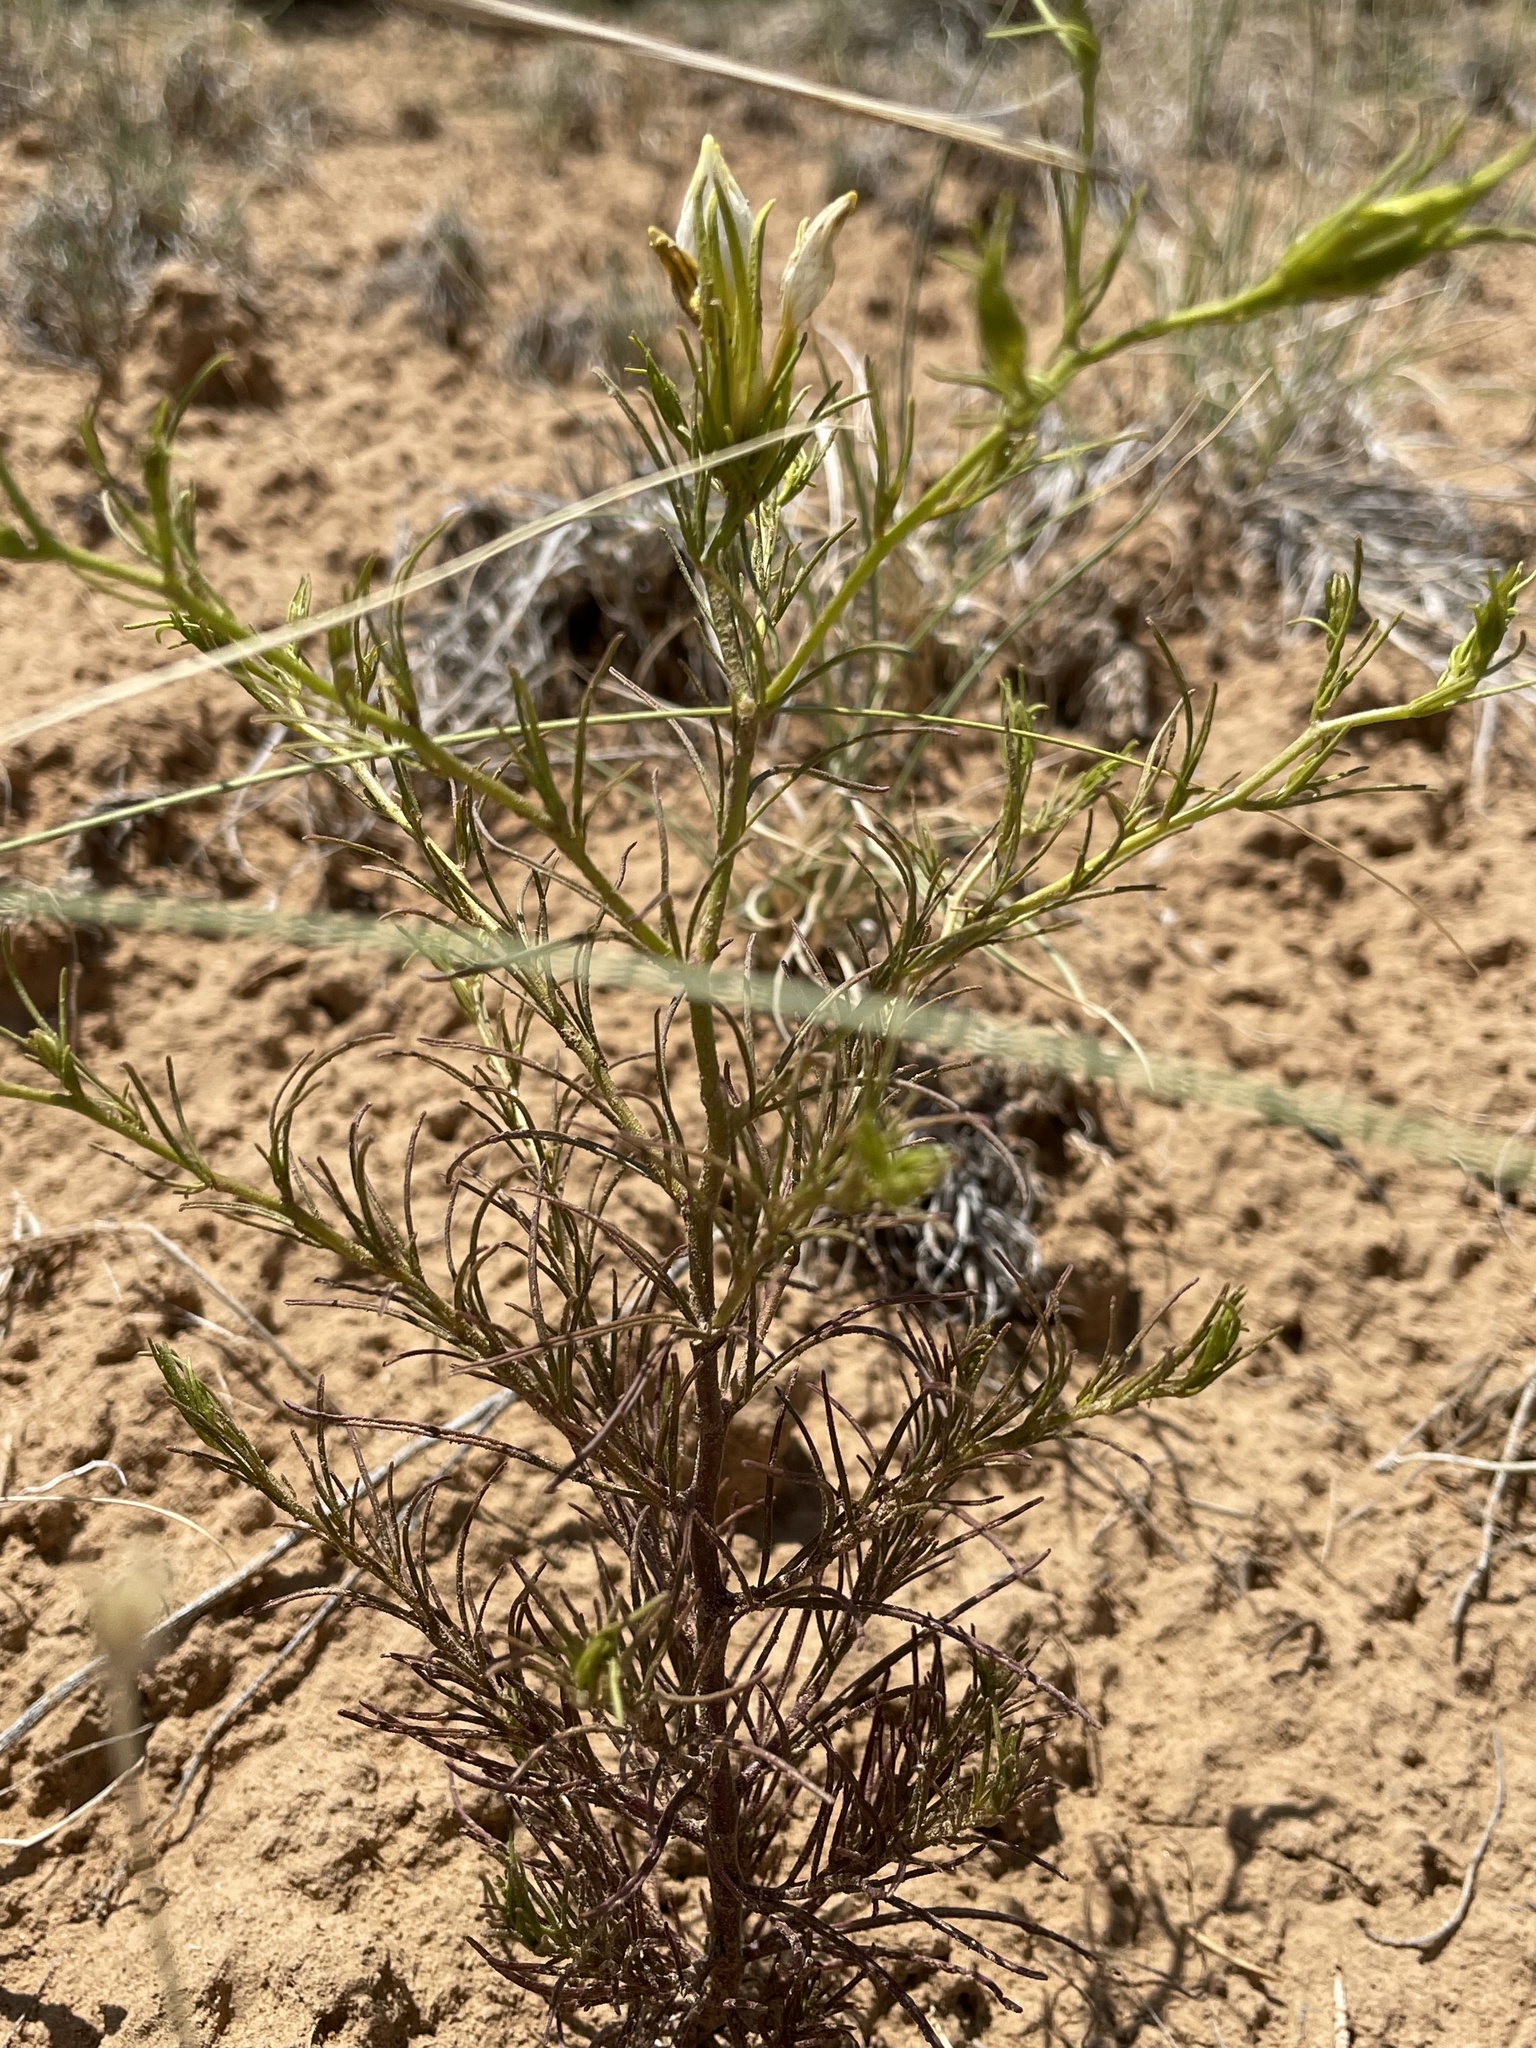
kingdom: Plantae
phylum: Tracheophyta
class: Magnoliopsida
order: Lamiales
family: Orobanchaceae
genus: Cordylanthus
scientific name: Cordylanthus wrightii
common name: Wright's birdsbeak
